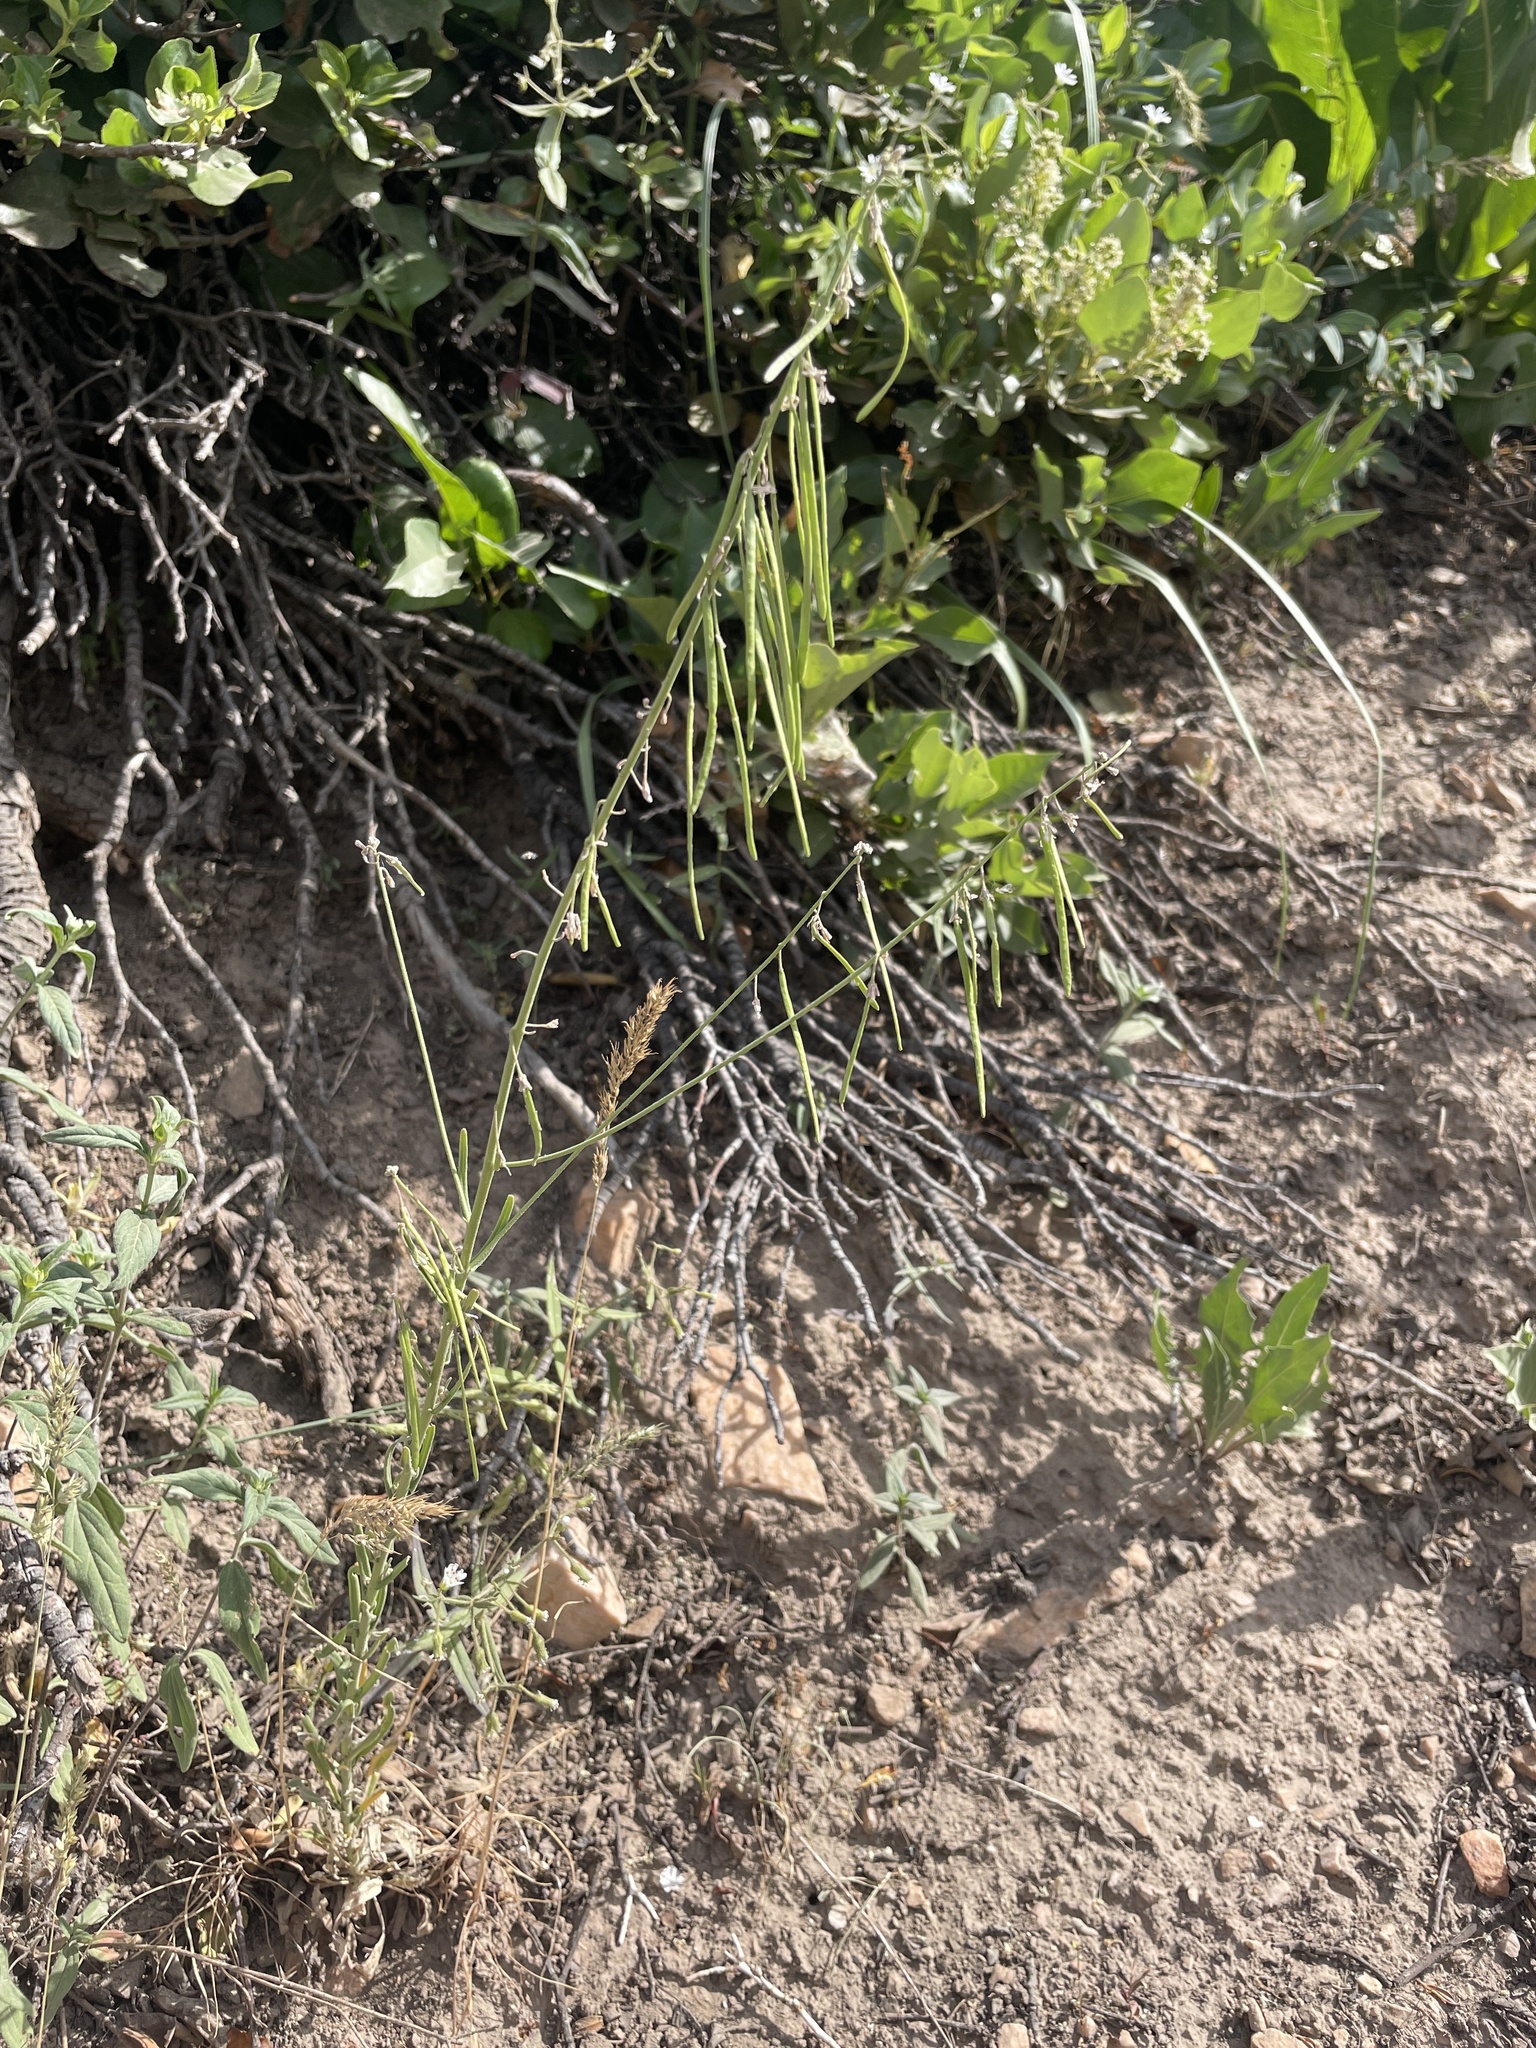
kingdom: Plantae
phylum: Tracheophyta
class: Magnoliopsida
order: Brassicales
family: Brassicaceae
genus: Boechera
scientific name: Boechera retrofracta
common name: Dangling suncress
